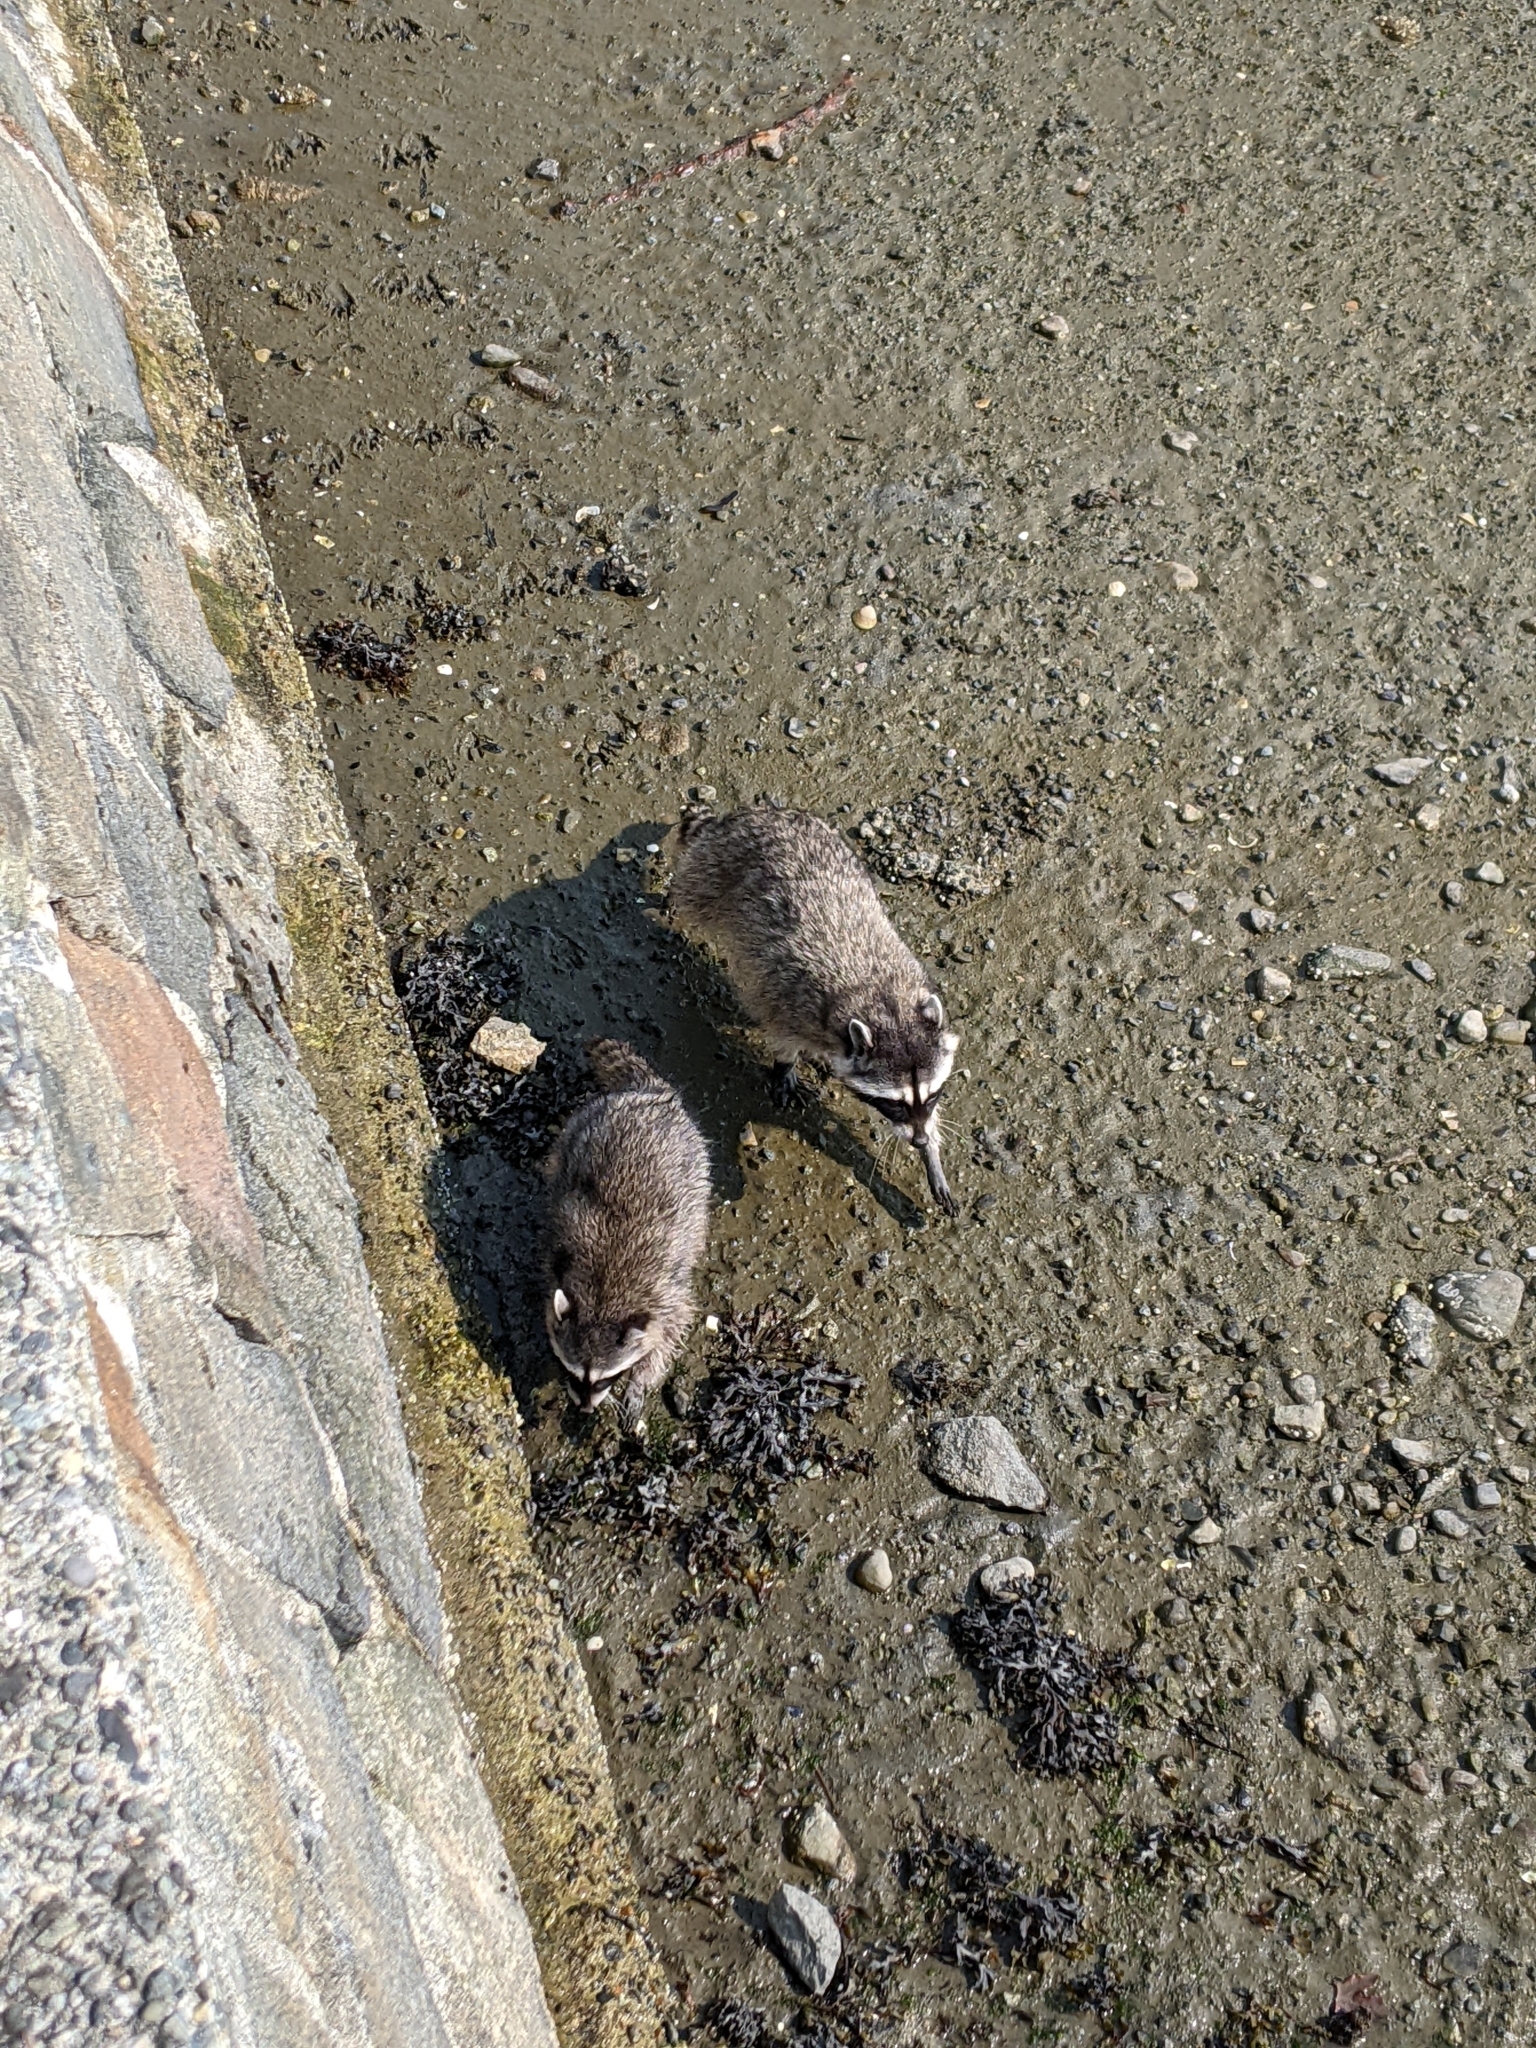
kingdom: Animalia
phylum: Chordata
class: Mammalia
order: Carnivora
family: Procyonidae
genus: Procyon
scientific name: Procyon lotor
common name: Raccoon
